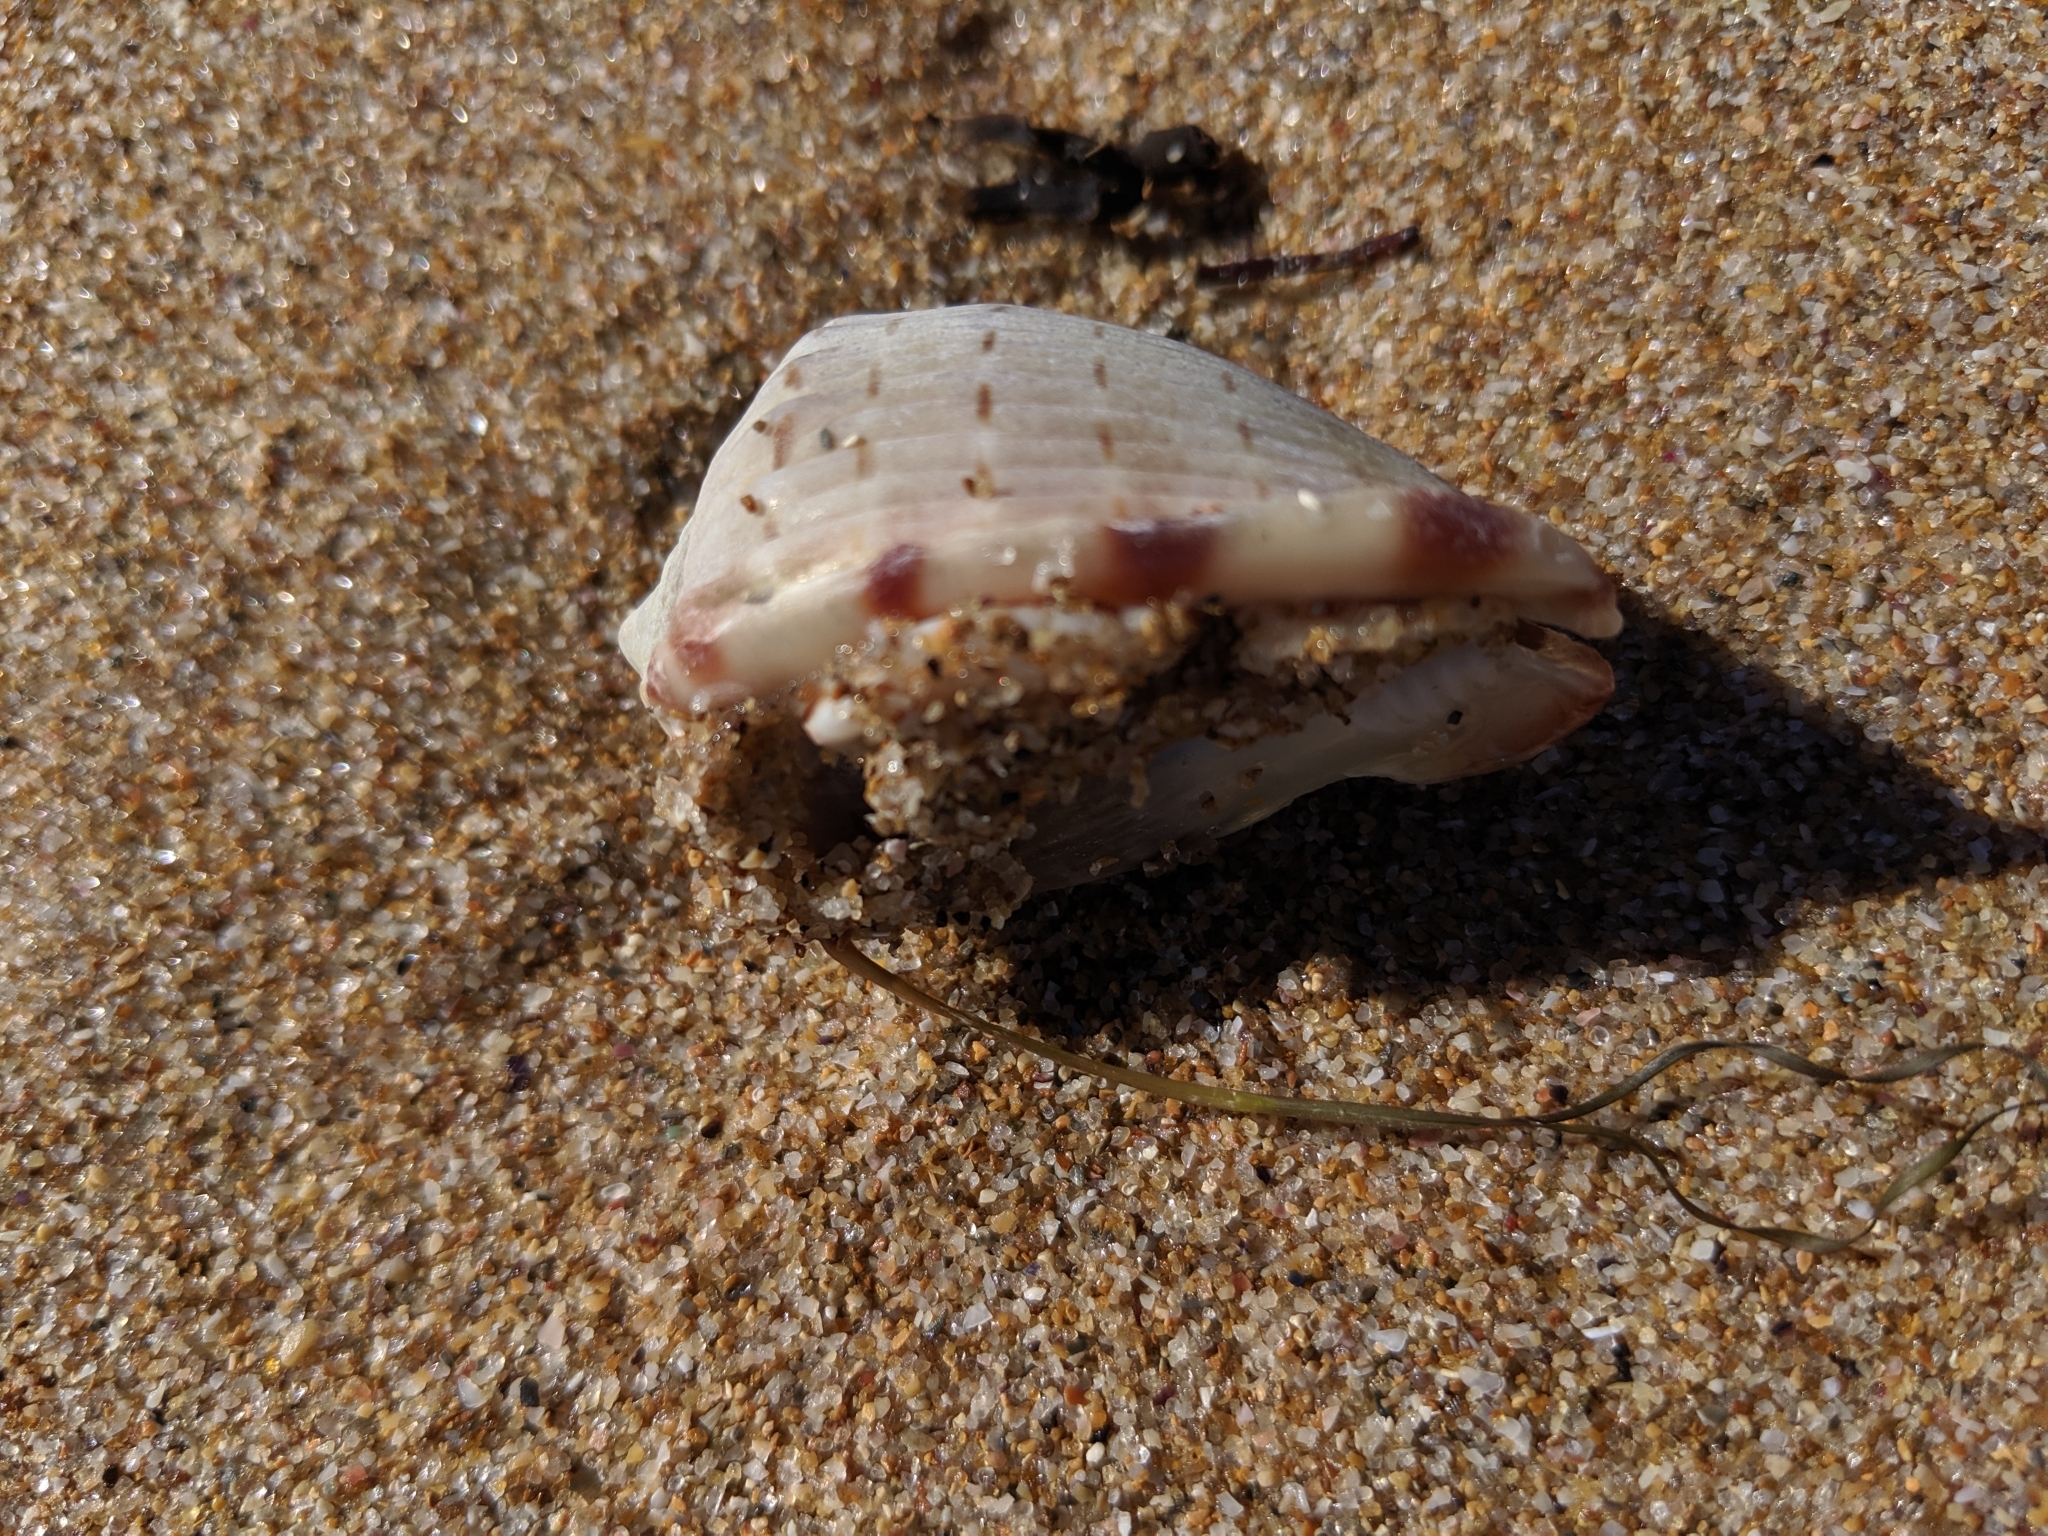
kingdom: Animalia
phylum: Mollusca
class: Gastropoda
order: Littorinimorpha
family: Cassidae
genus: Cassis
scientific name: Cassis fimbriata
